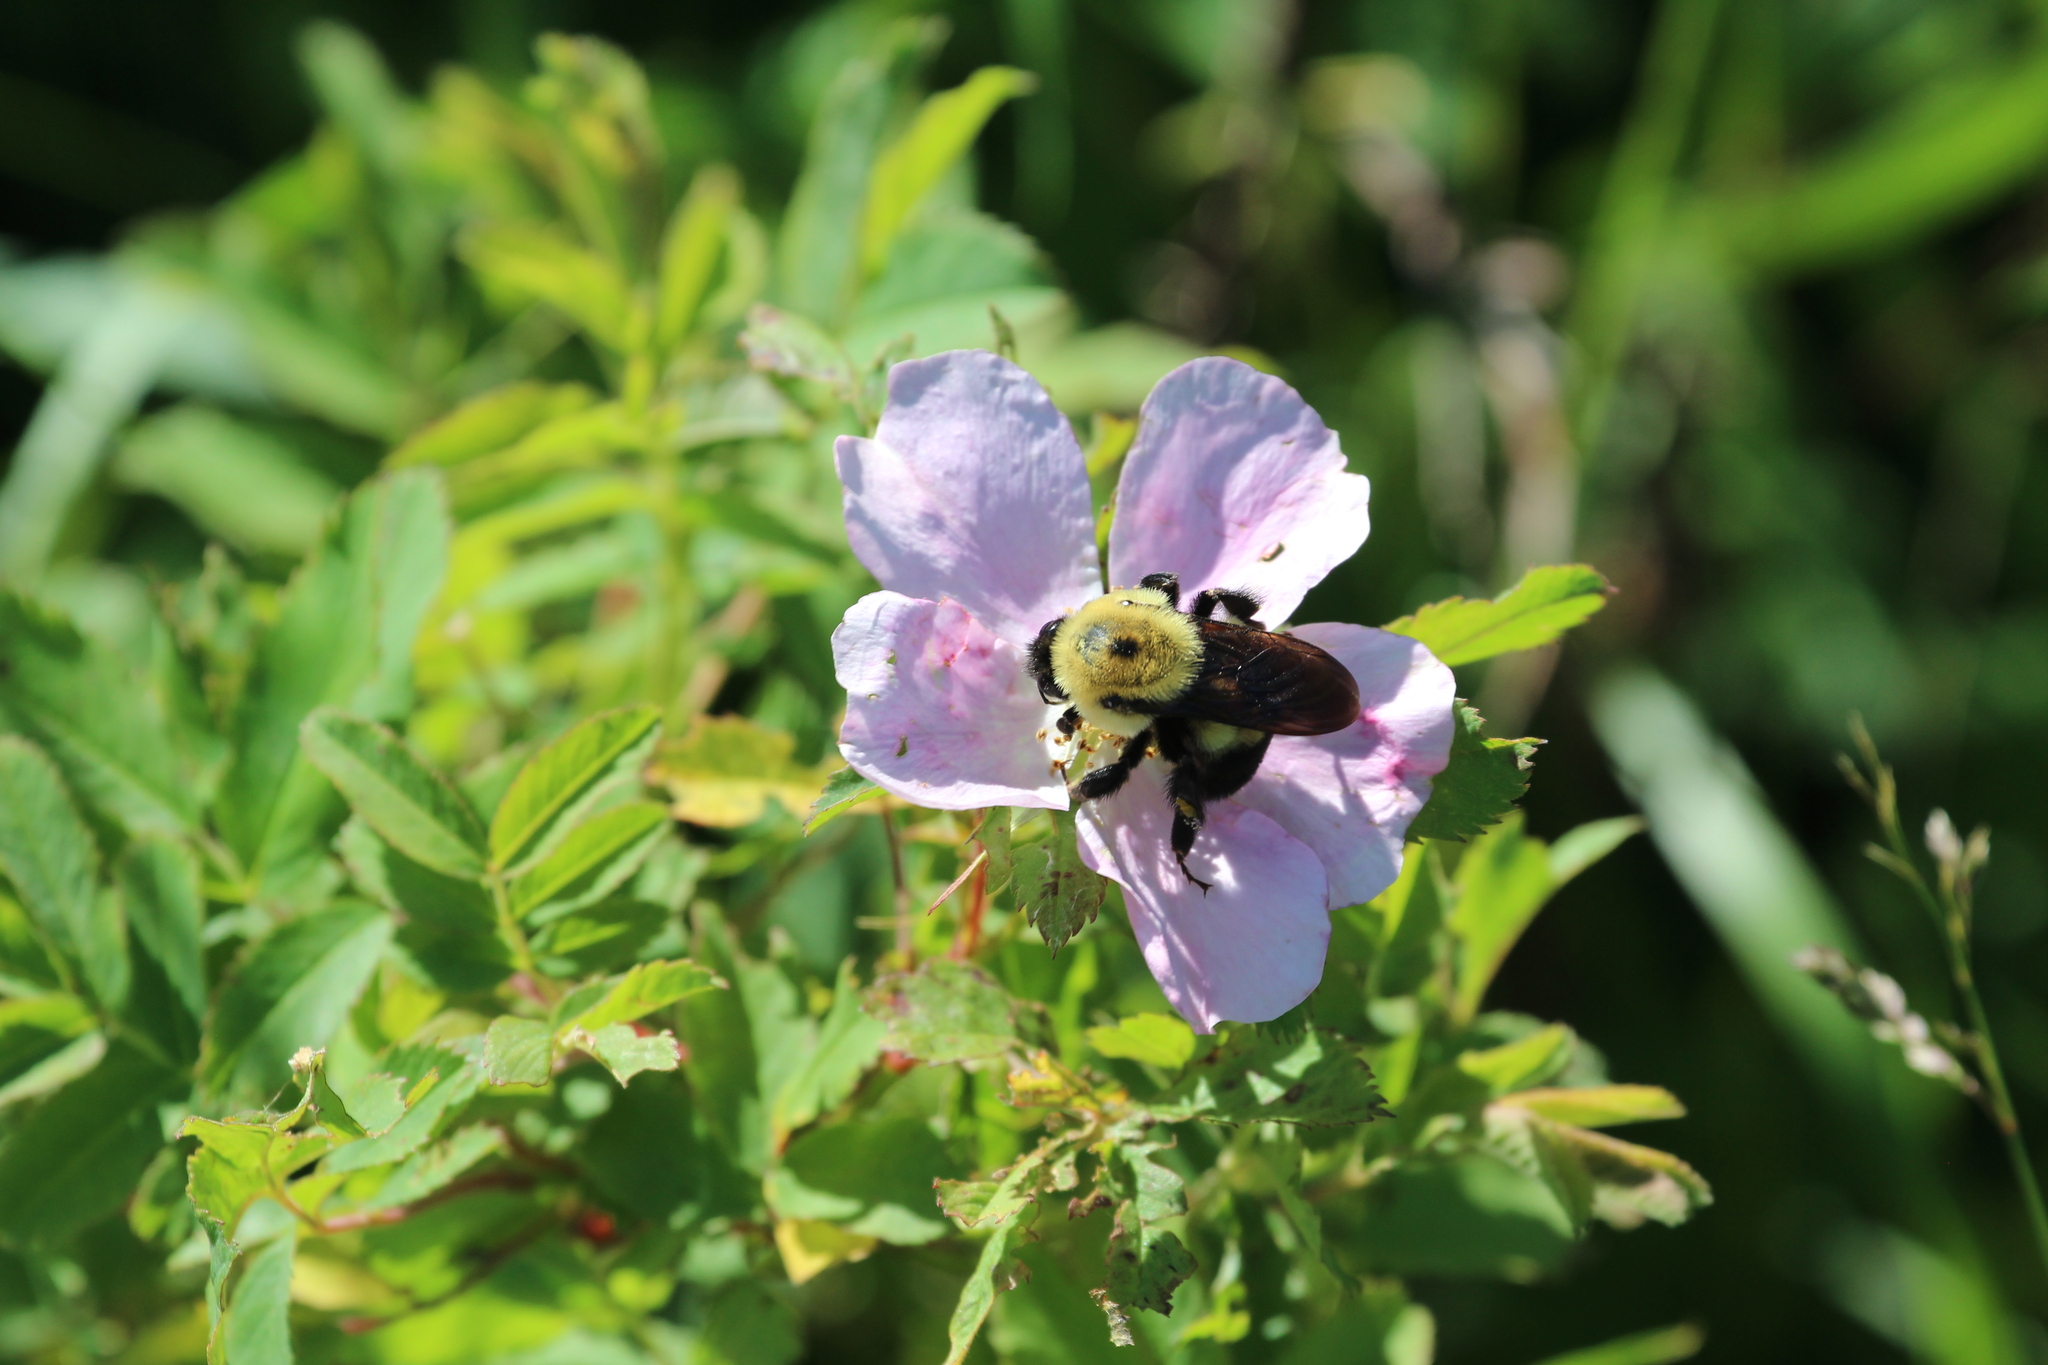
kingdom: Animalia
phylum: Arthropoda
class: Insecta
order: Hymenoptera
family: Apidae
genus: Bombus
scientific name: Bombus griseocollis
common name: Brown-belted bumble bee
